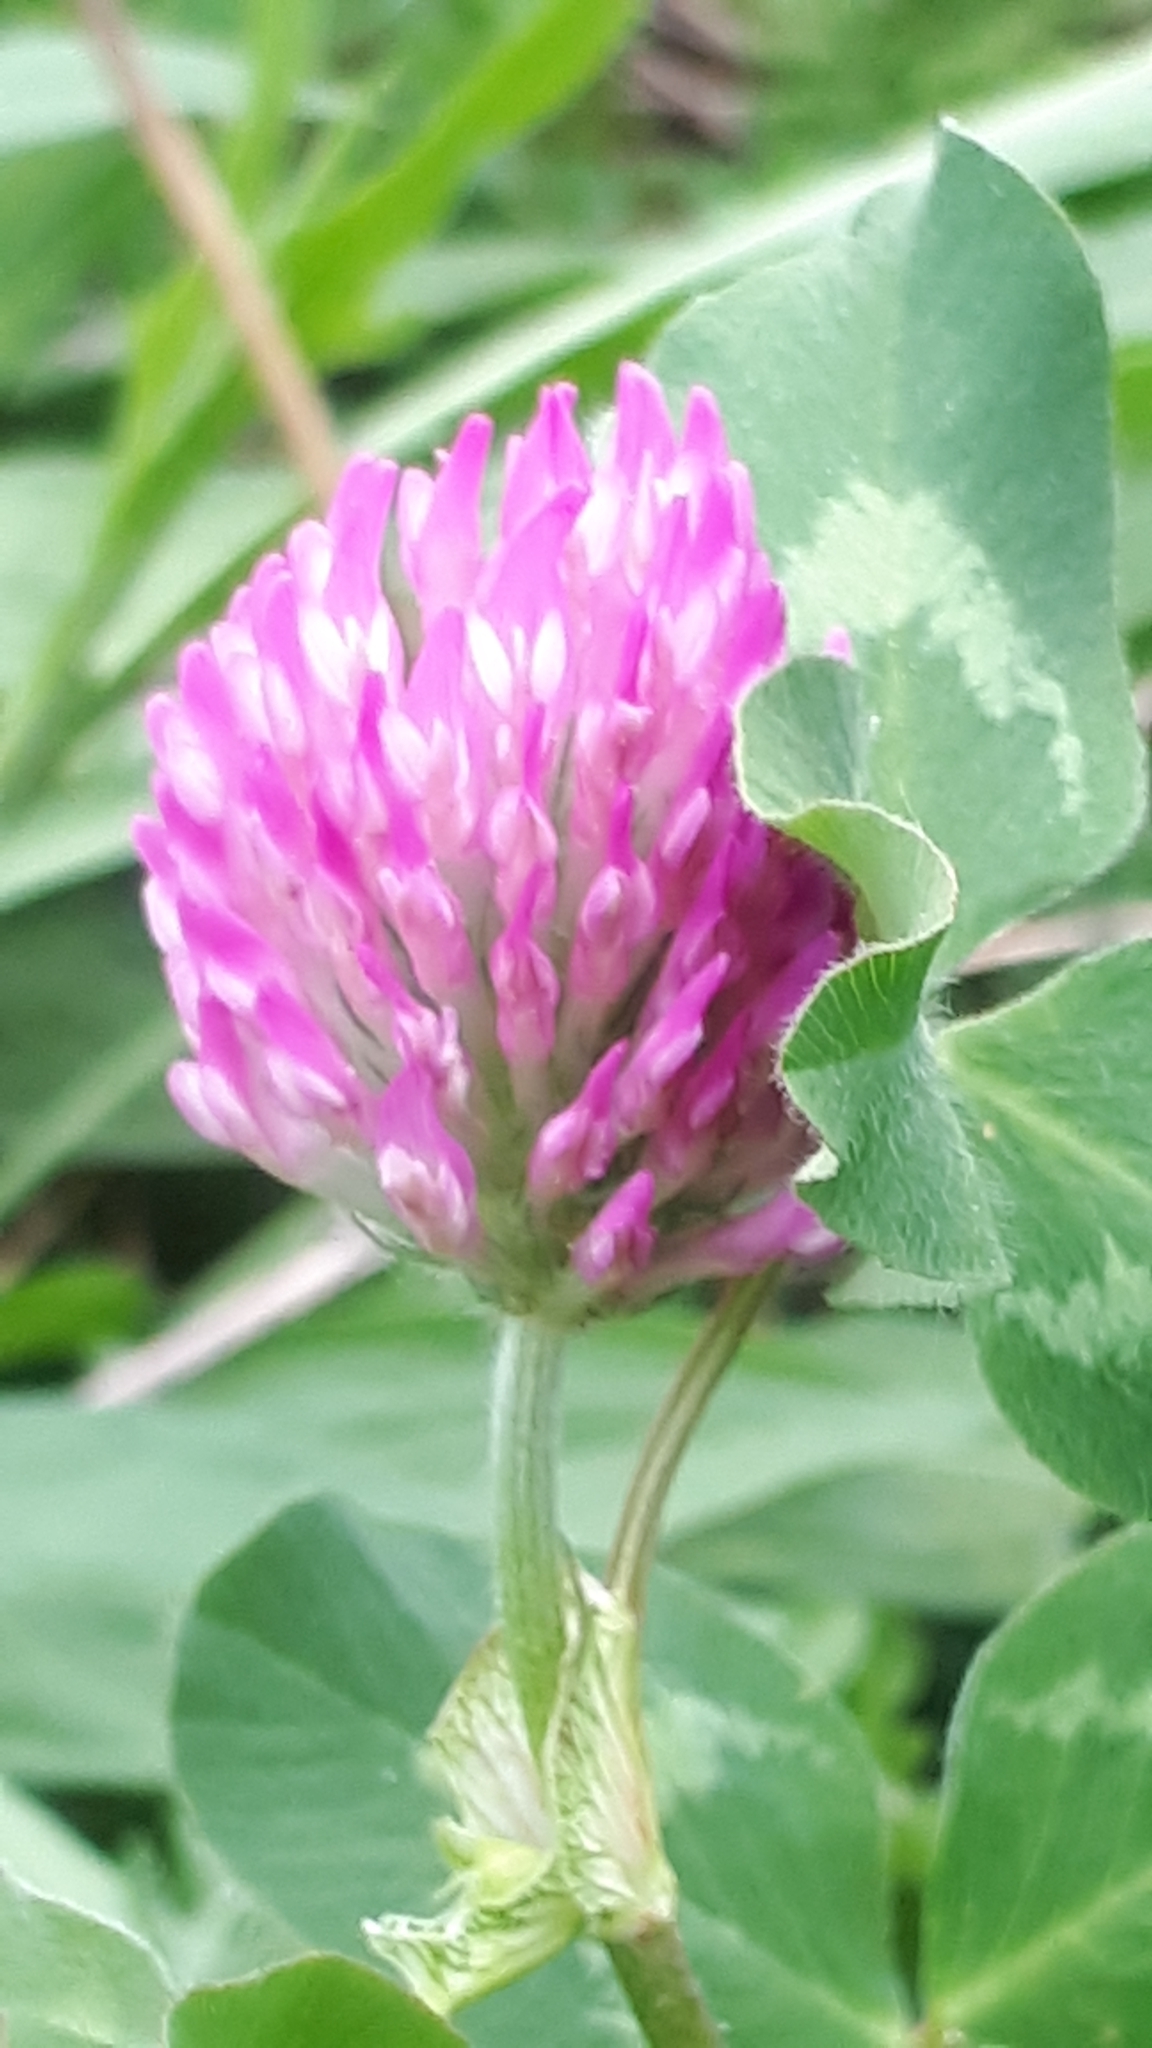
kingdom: Plantae
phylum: Tracheophyta
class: Magnoliopsida
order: Fabales
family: Fabaceae
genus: Trifolium
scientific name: Trifolium pratense
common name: Red clover
